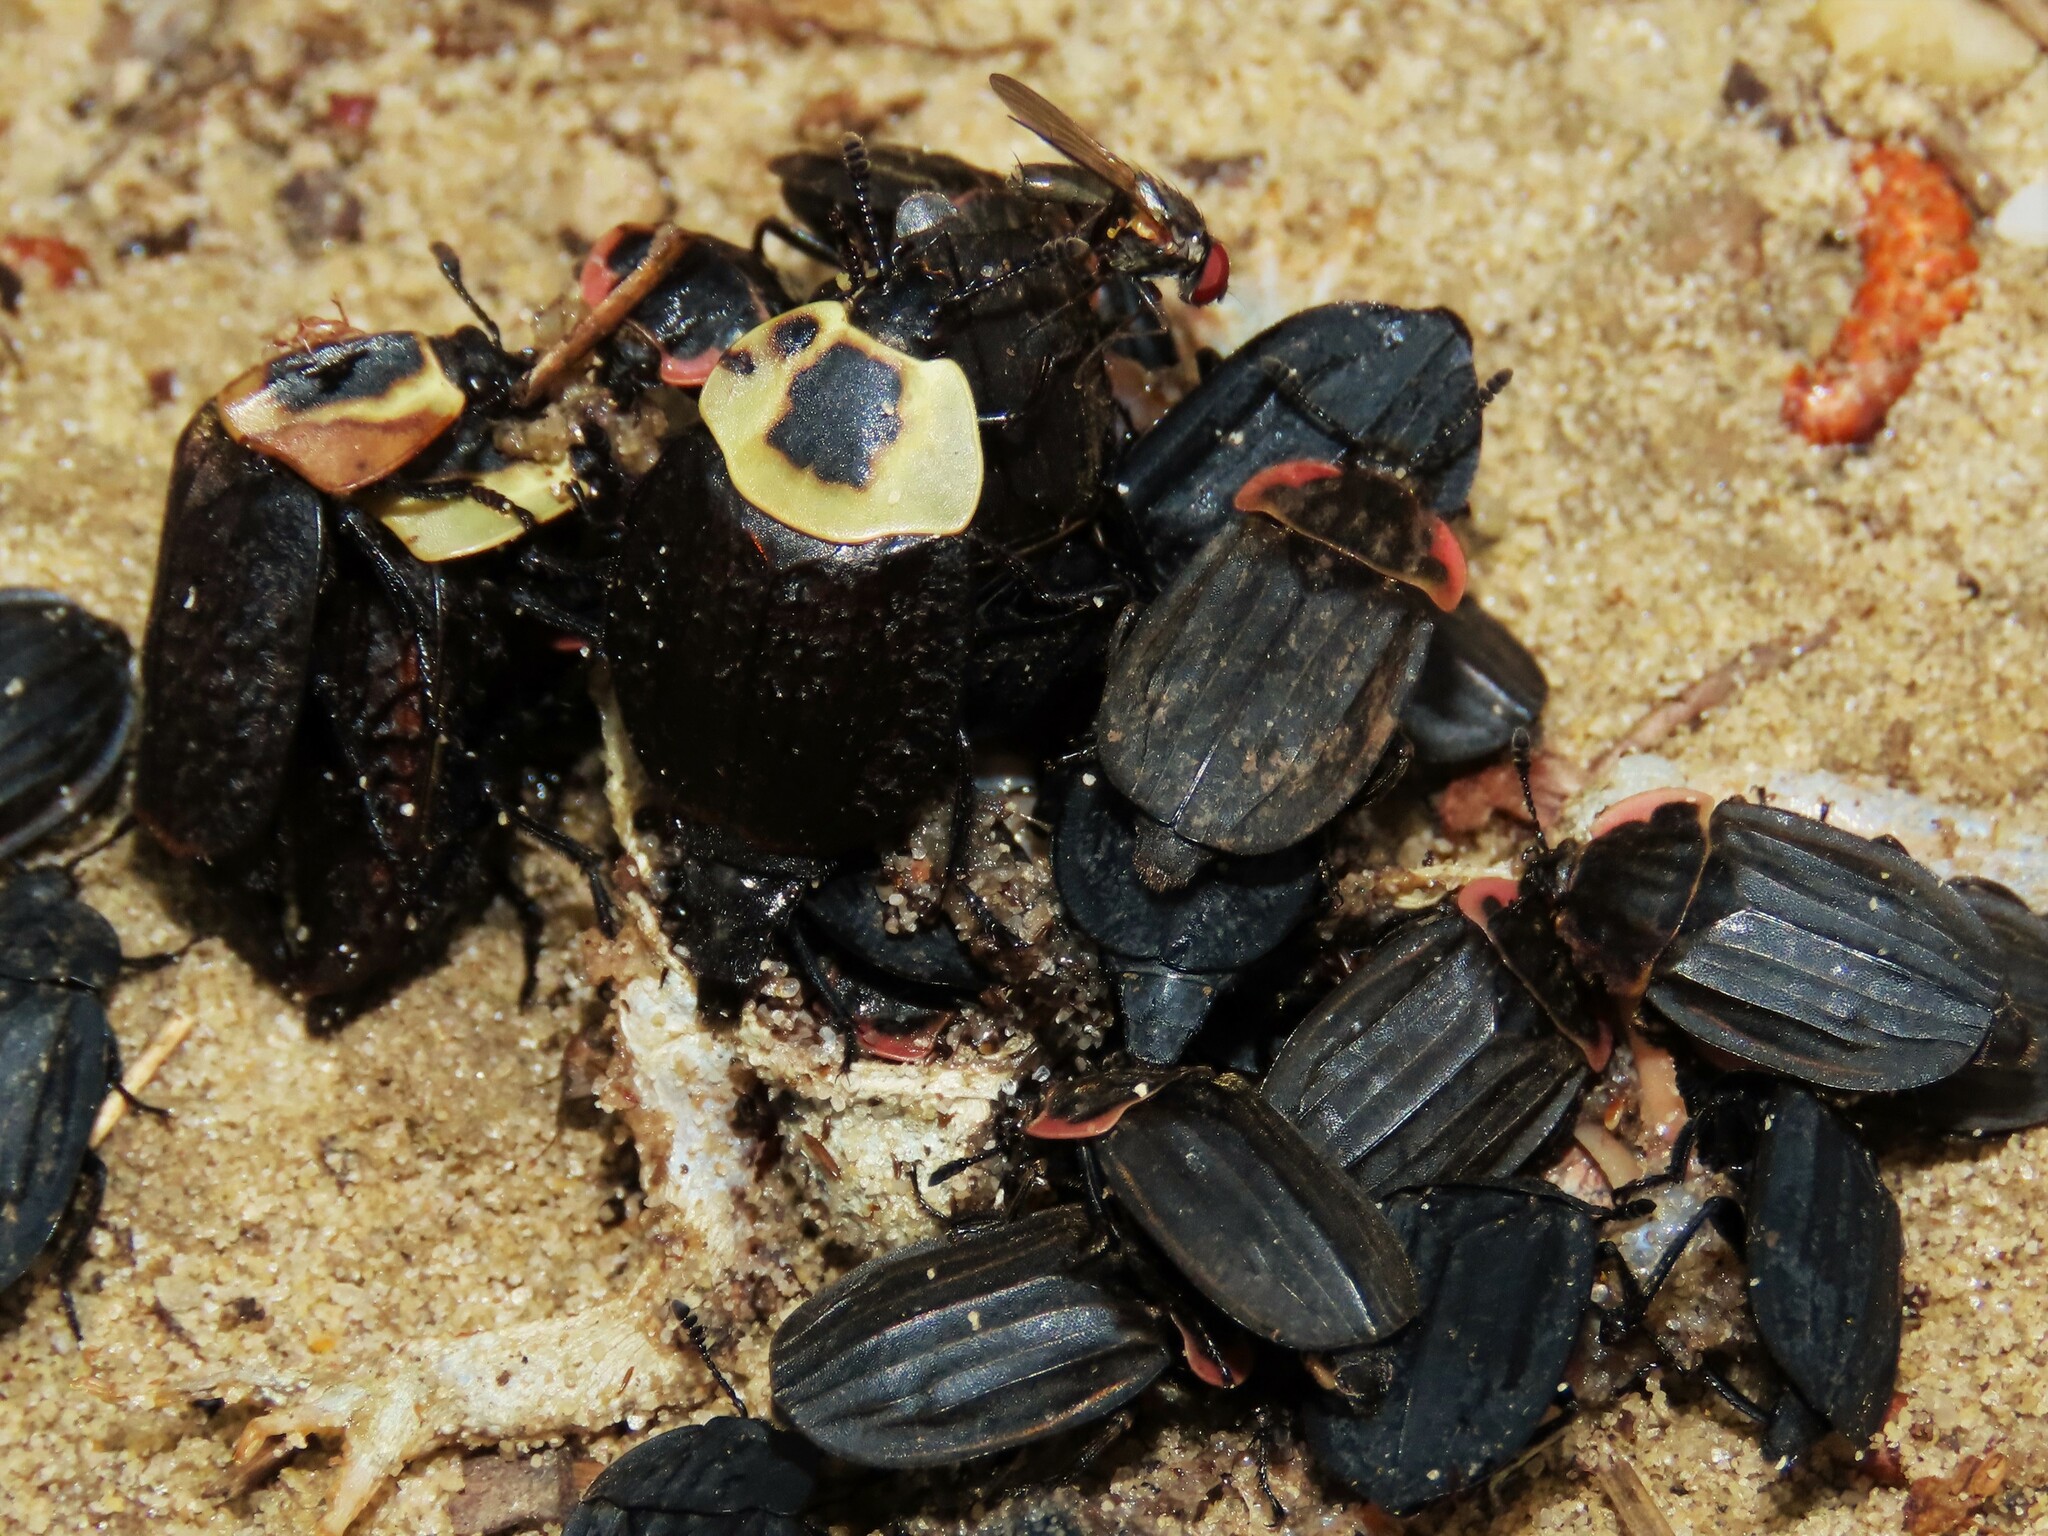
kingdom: Animalia
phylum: Arthropoda
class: Insecta
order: Coleoptera
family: Staphylinidae
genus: Oiceoptoma
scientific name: Oiceoptoma noveboracense
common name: Margined carrion beetle
